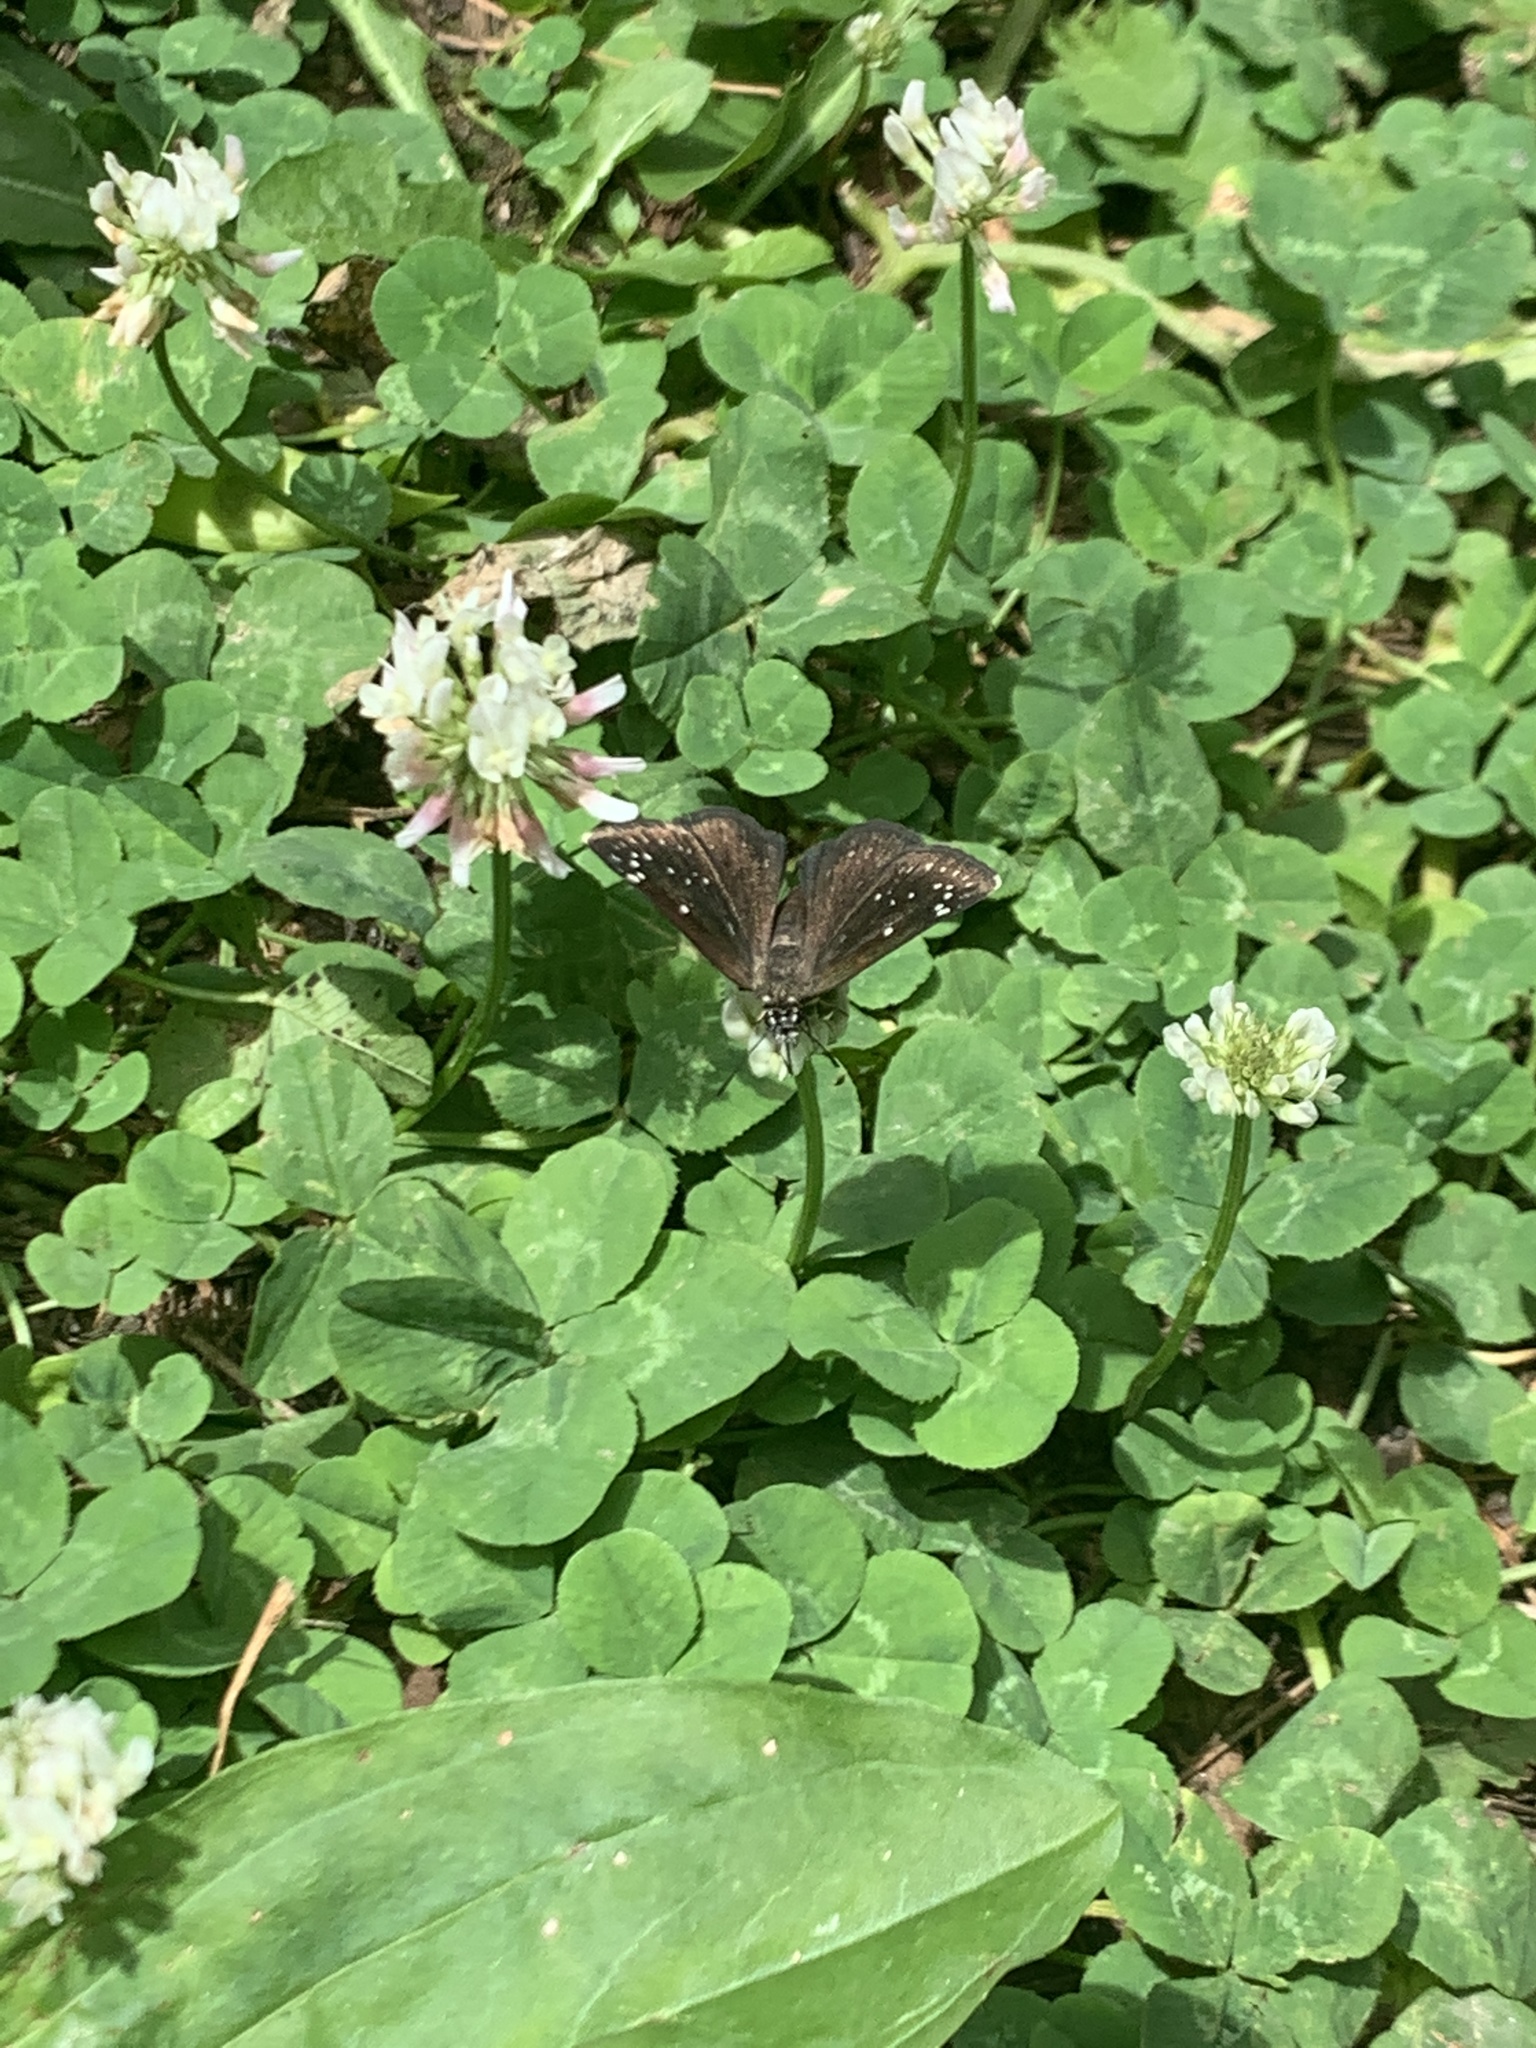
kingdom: Animalia
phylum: Arthropoda
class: Insecta
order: Lepidoptera
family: Hesperiidae
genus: Pholisora
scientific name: Pholisora catullus
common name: Common sootywing
